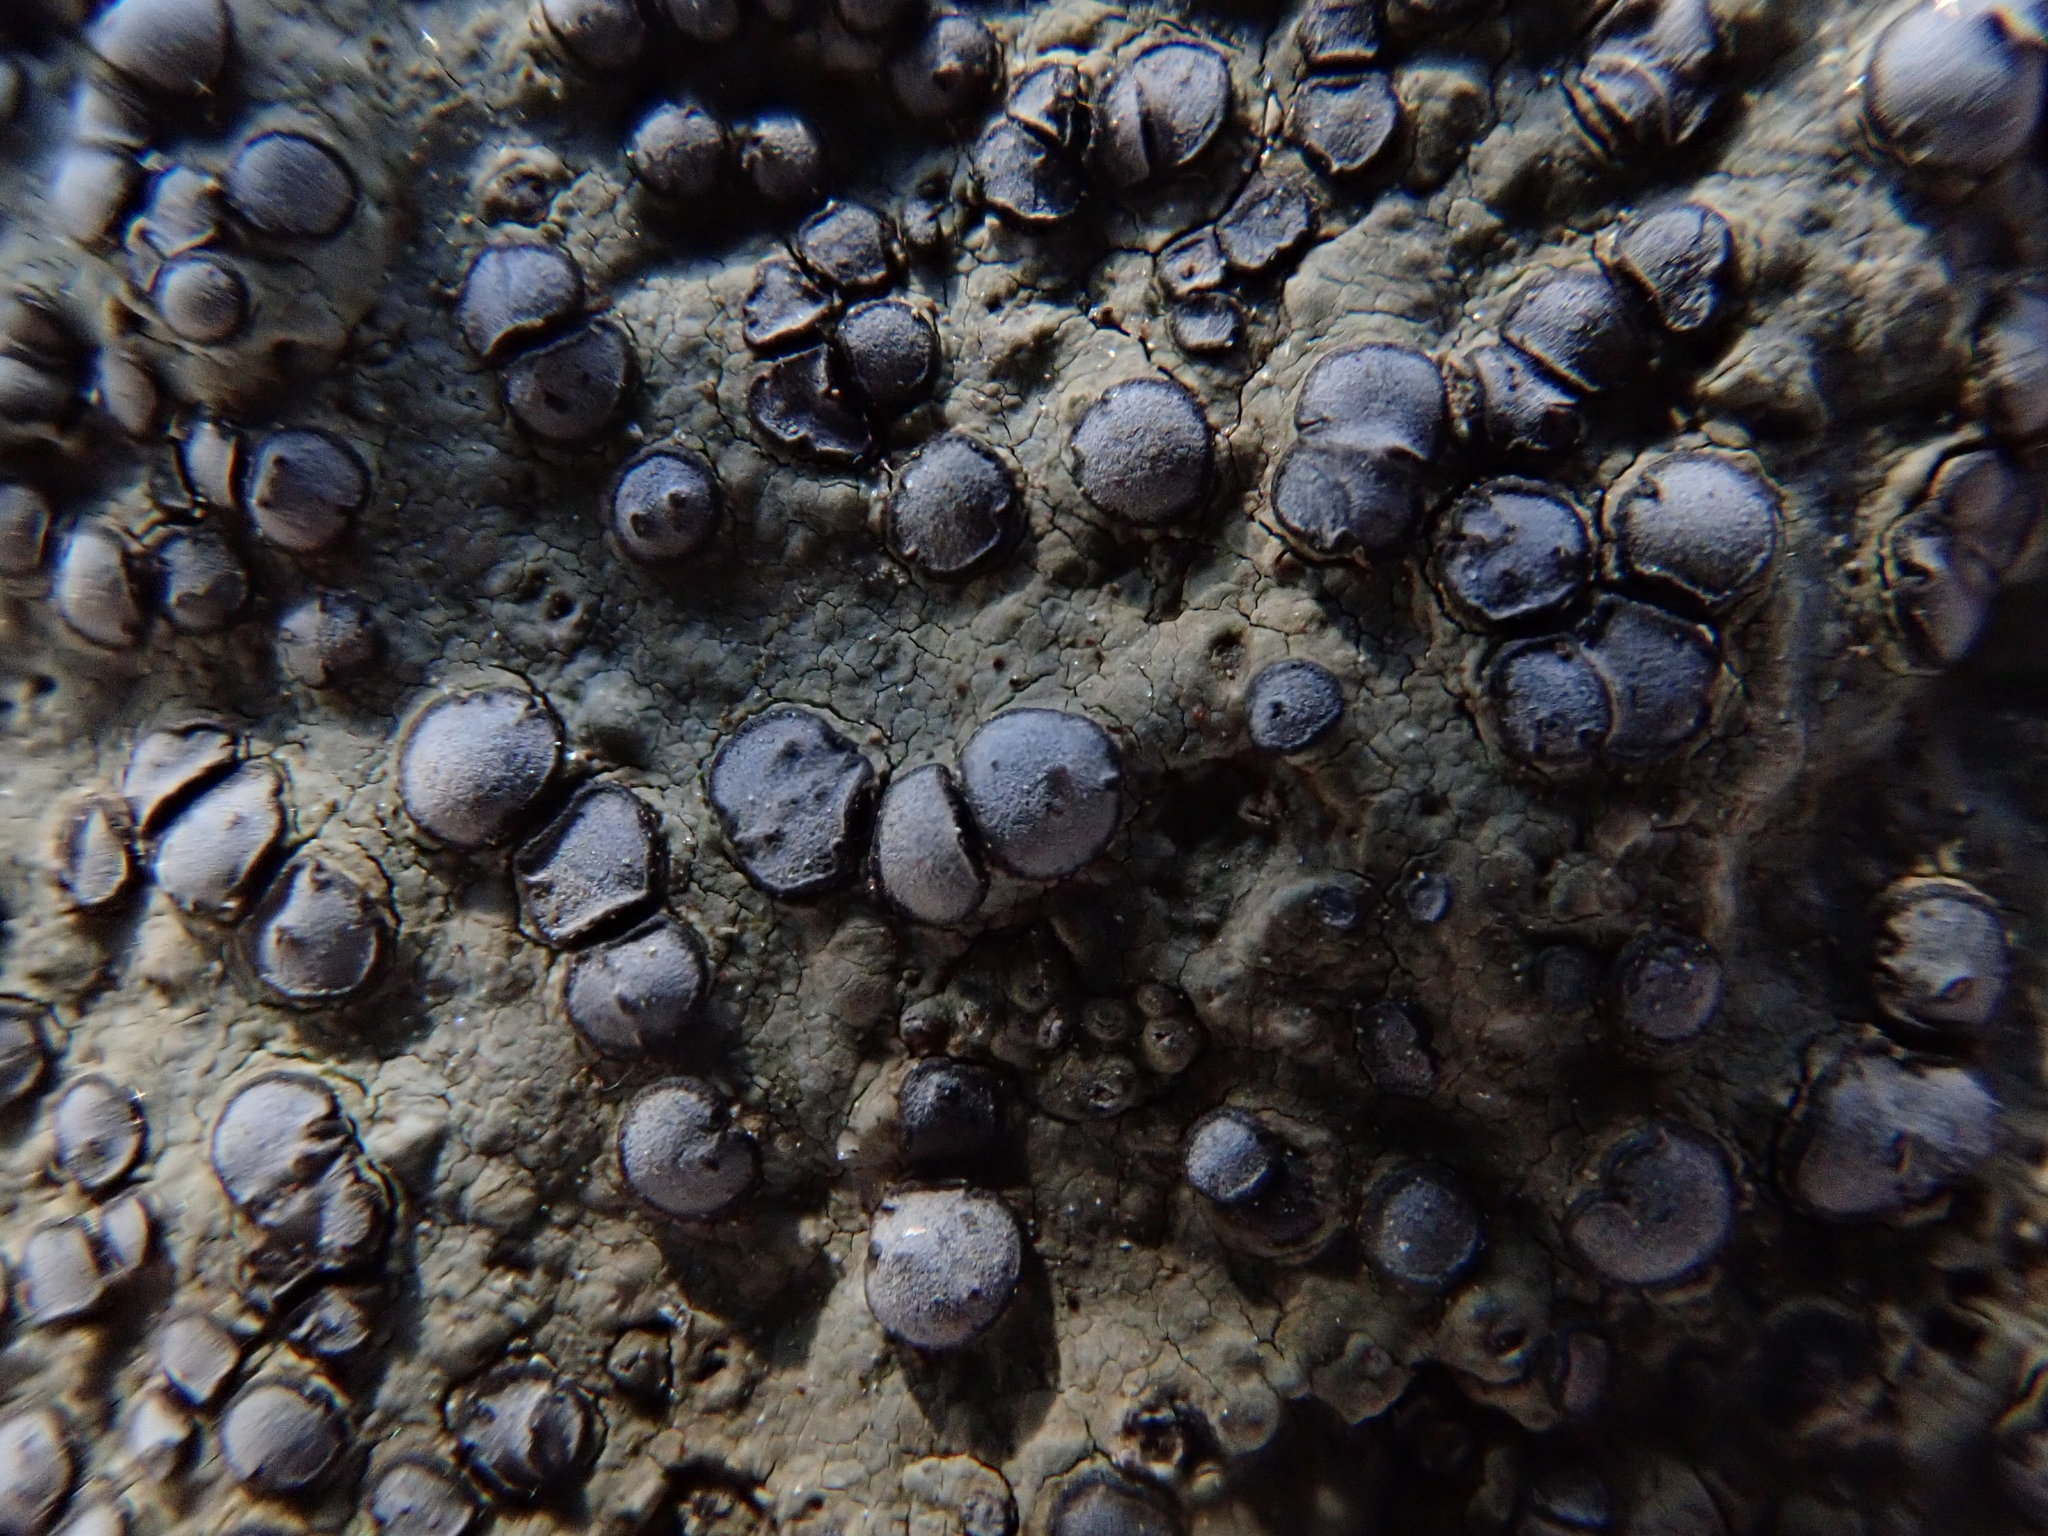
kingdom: Fungi
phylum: Ascomycota
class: Lecanoromycetes
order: Lecideales
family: Lecideaceae
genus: Porpidia
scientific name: Porpidia albocaerulescens
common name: Smokey-eyed boulder lichen
